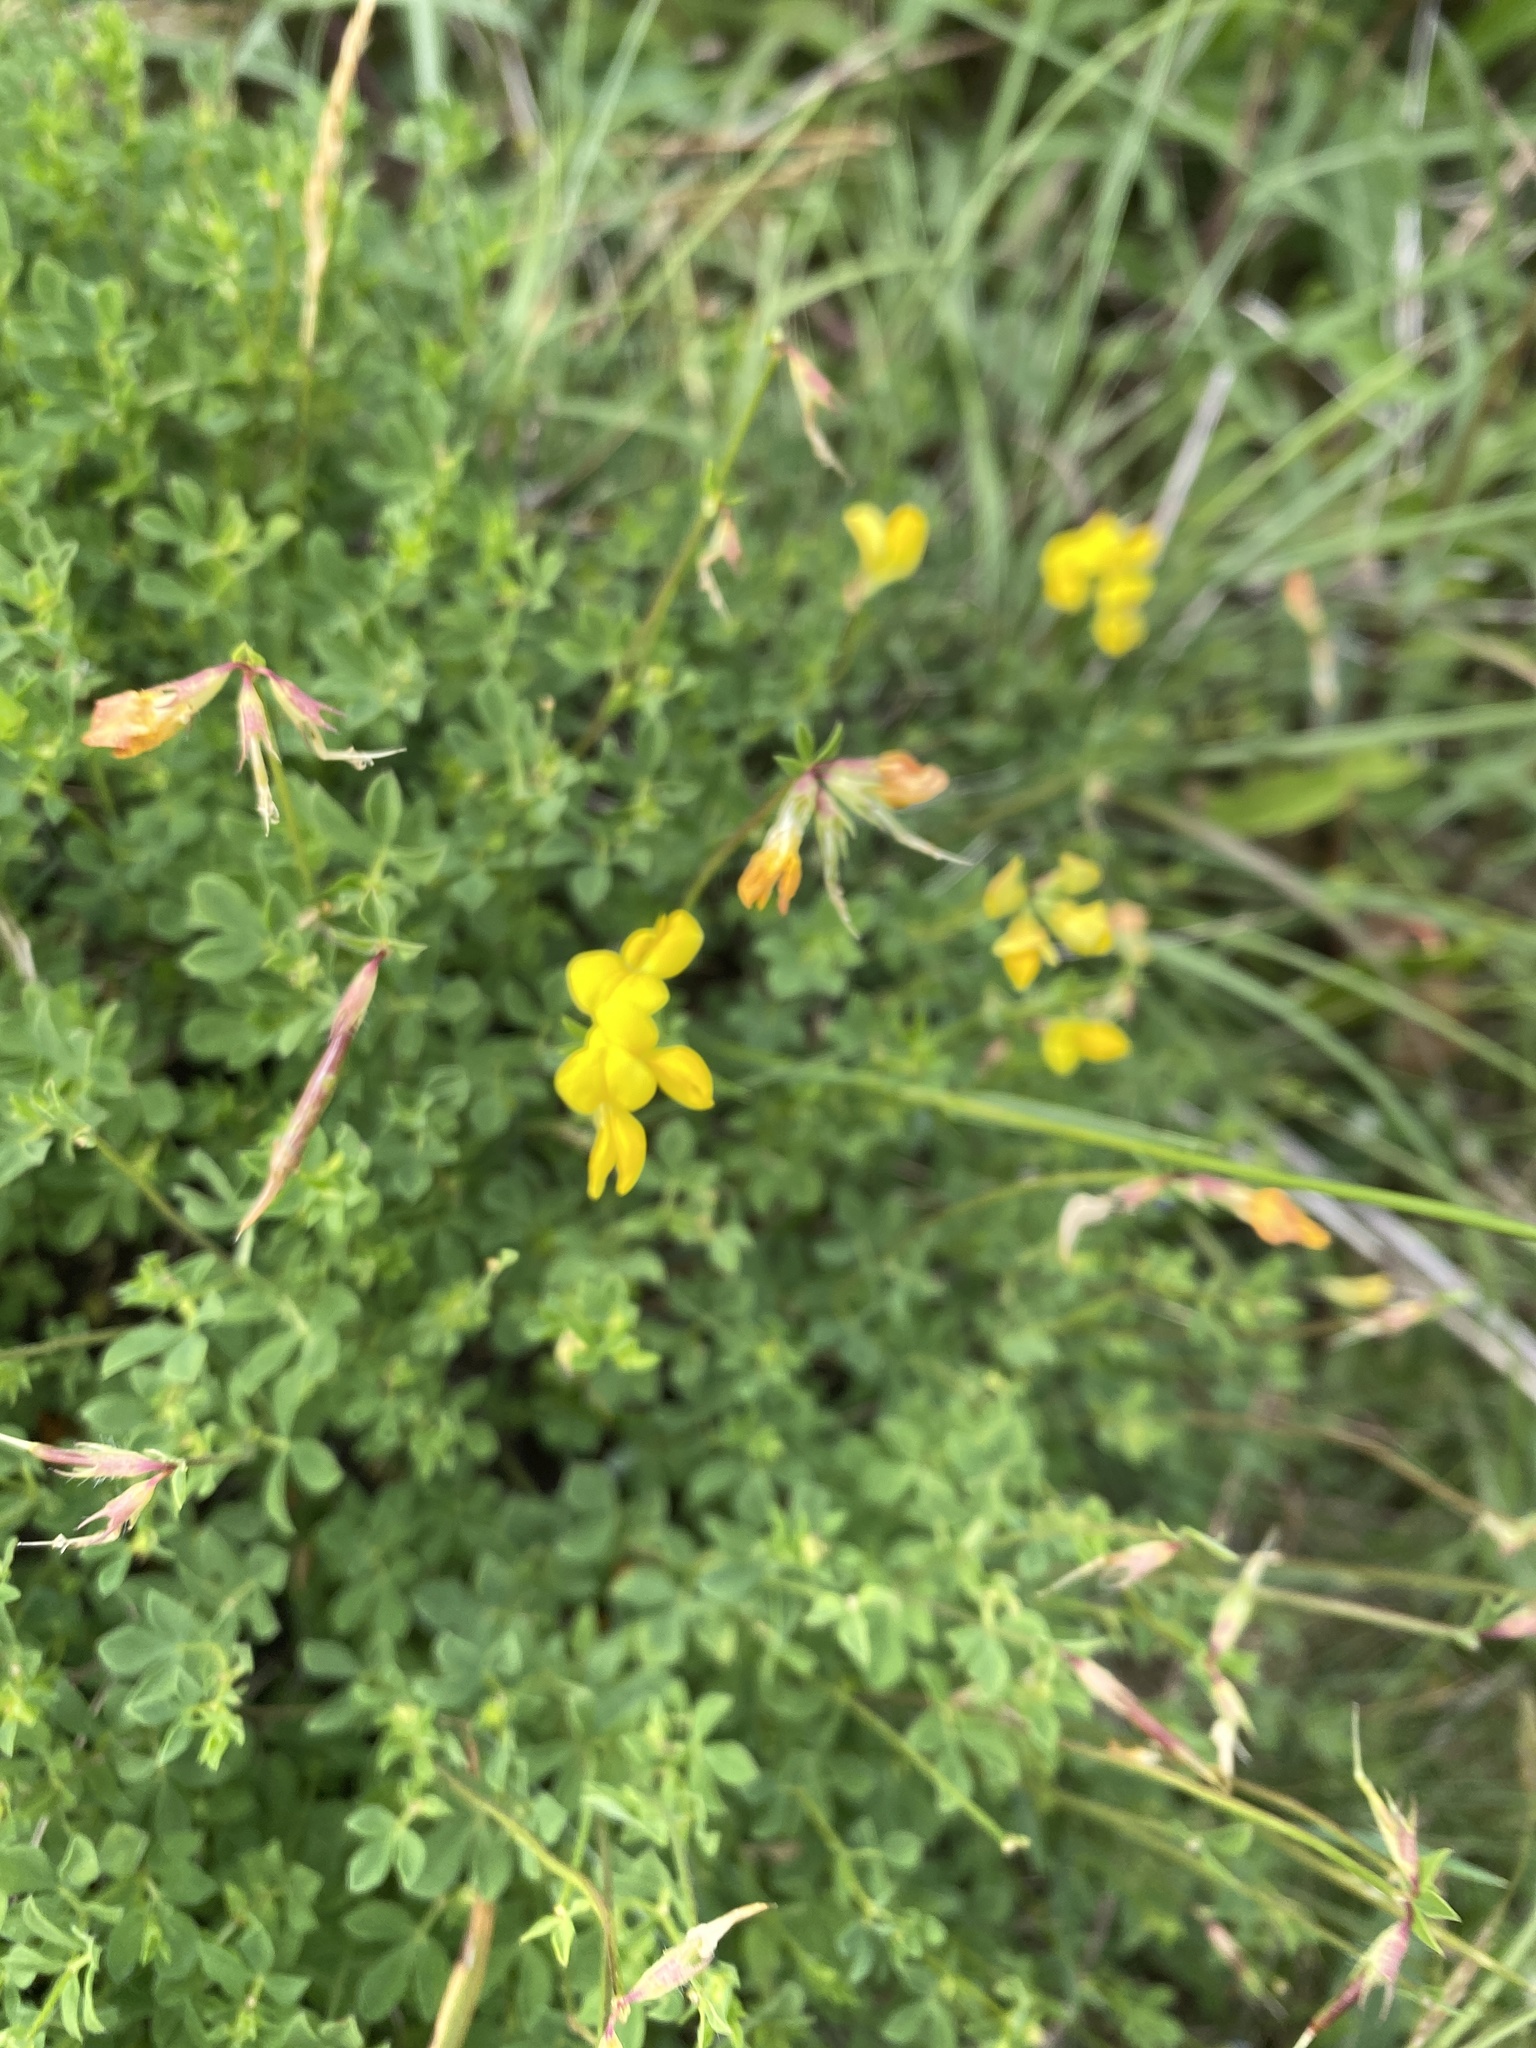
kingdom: Plantae
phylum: Tracheophyta
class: Magnoliopsida
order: Fabales
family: Fabaceae
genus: Lotus
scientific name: Lotus corniculatus
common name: Common bird's-foot-trefoil
